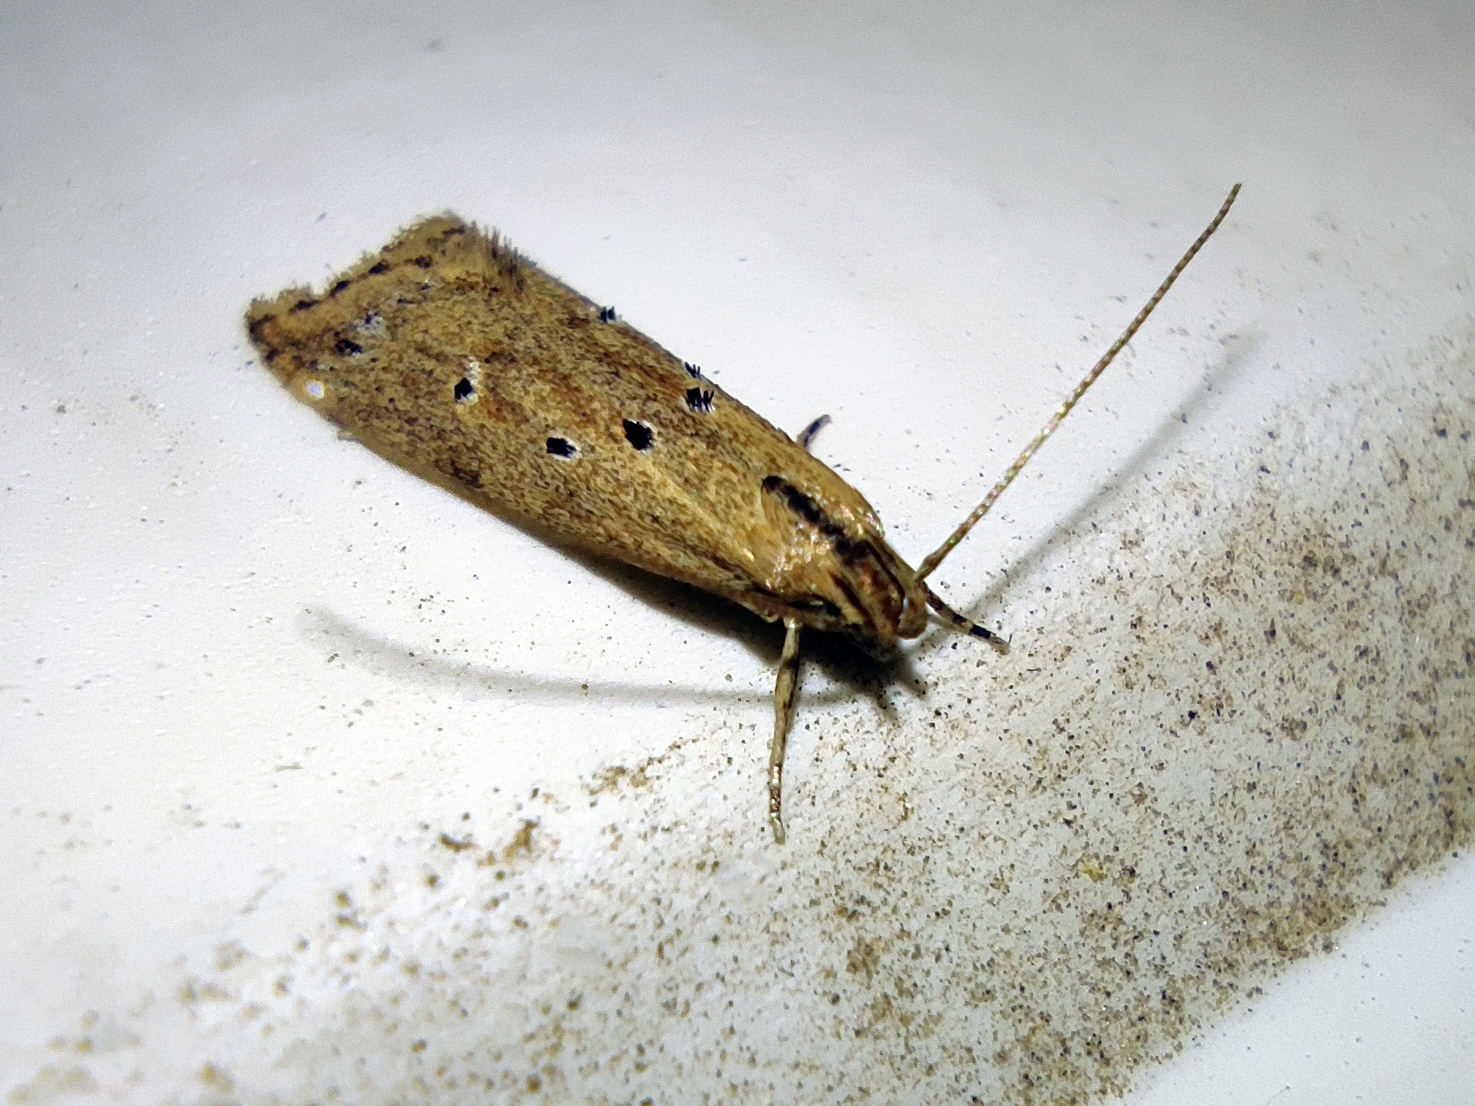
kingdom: Animalia
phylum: Arthropoda
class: Insecta
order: Lepidoptera
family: Gelechiidae
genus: Brachmia
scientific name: Brachmia inornatella
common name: Fen crest
